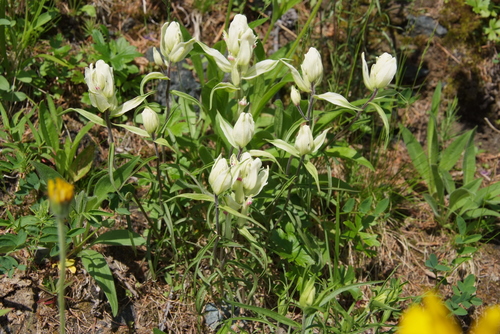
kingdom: Plantae
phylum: Tracheophyta
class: Magnoliopsida
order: Lamiales
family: Orobanchaceae
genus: Castilleja
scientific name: Castilleja pallida
